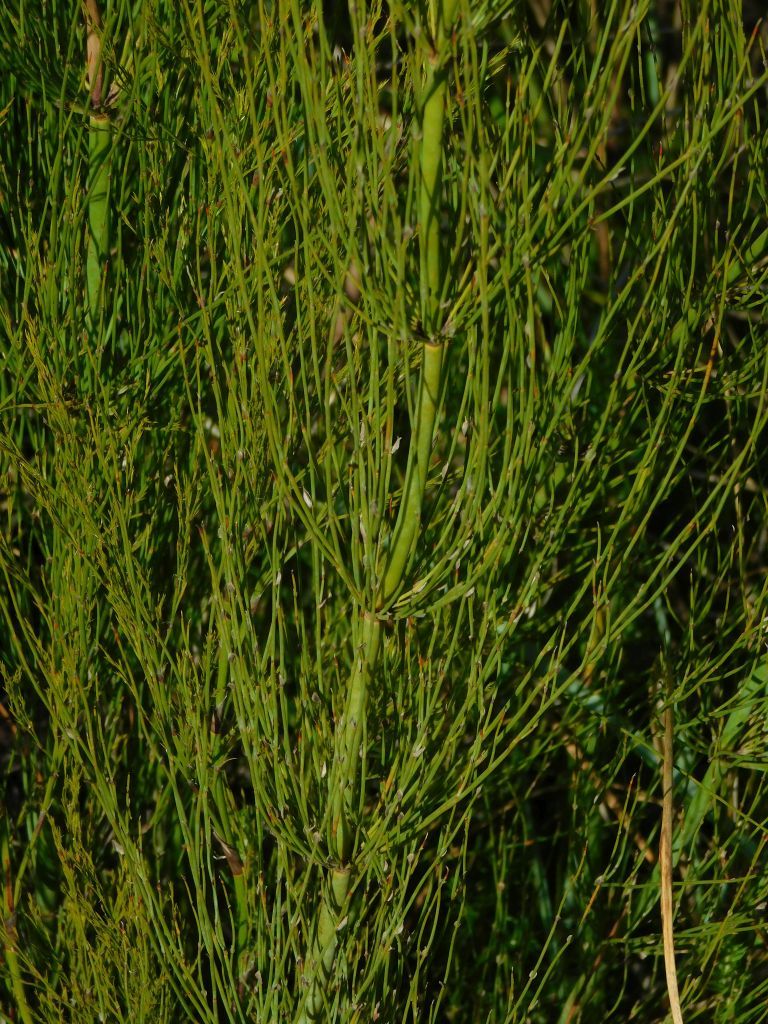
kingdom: Plantae
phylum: Tracheophyta
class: Liliopsida
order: Poales
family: Restionaceae
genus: Elegia
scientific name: Elegia capensis
